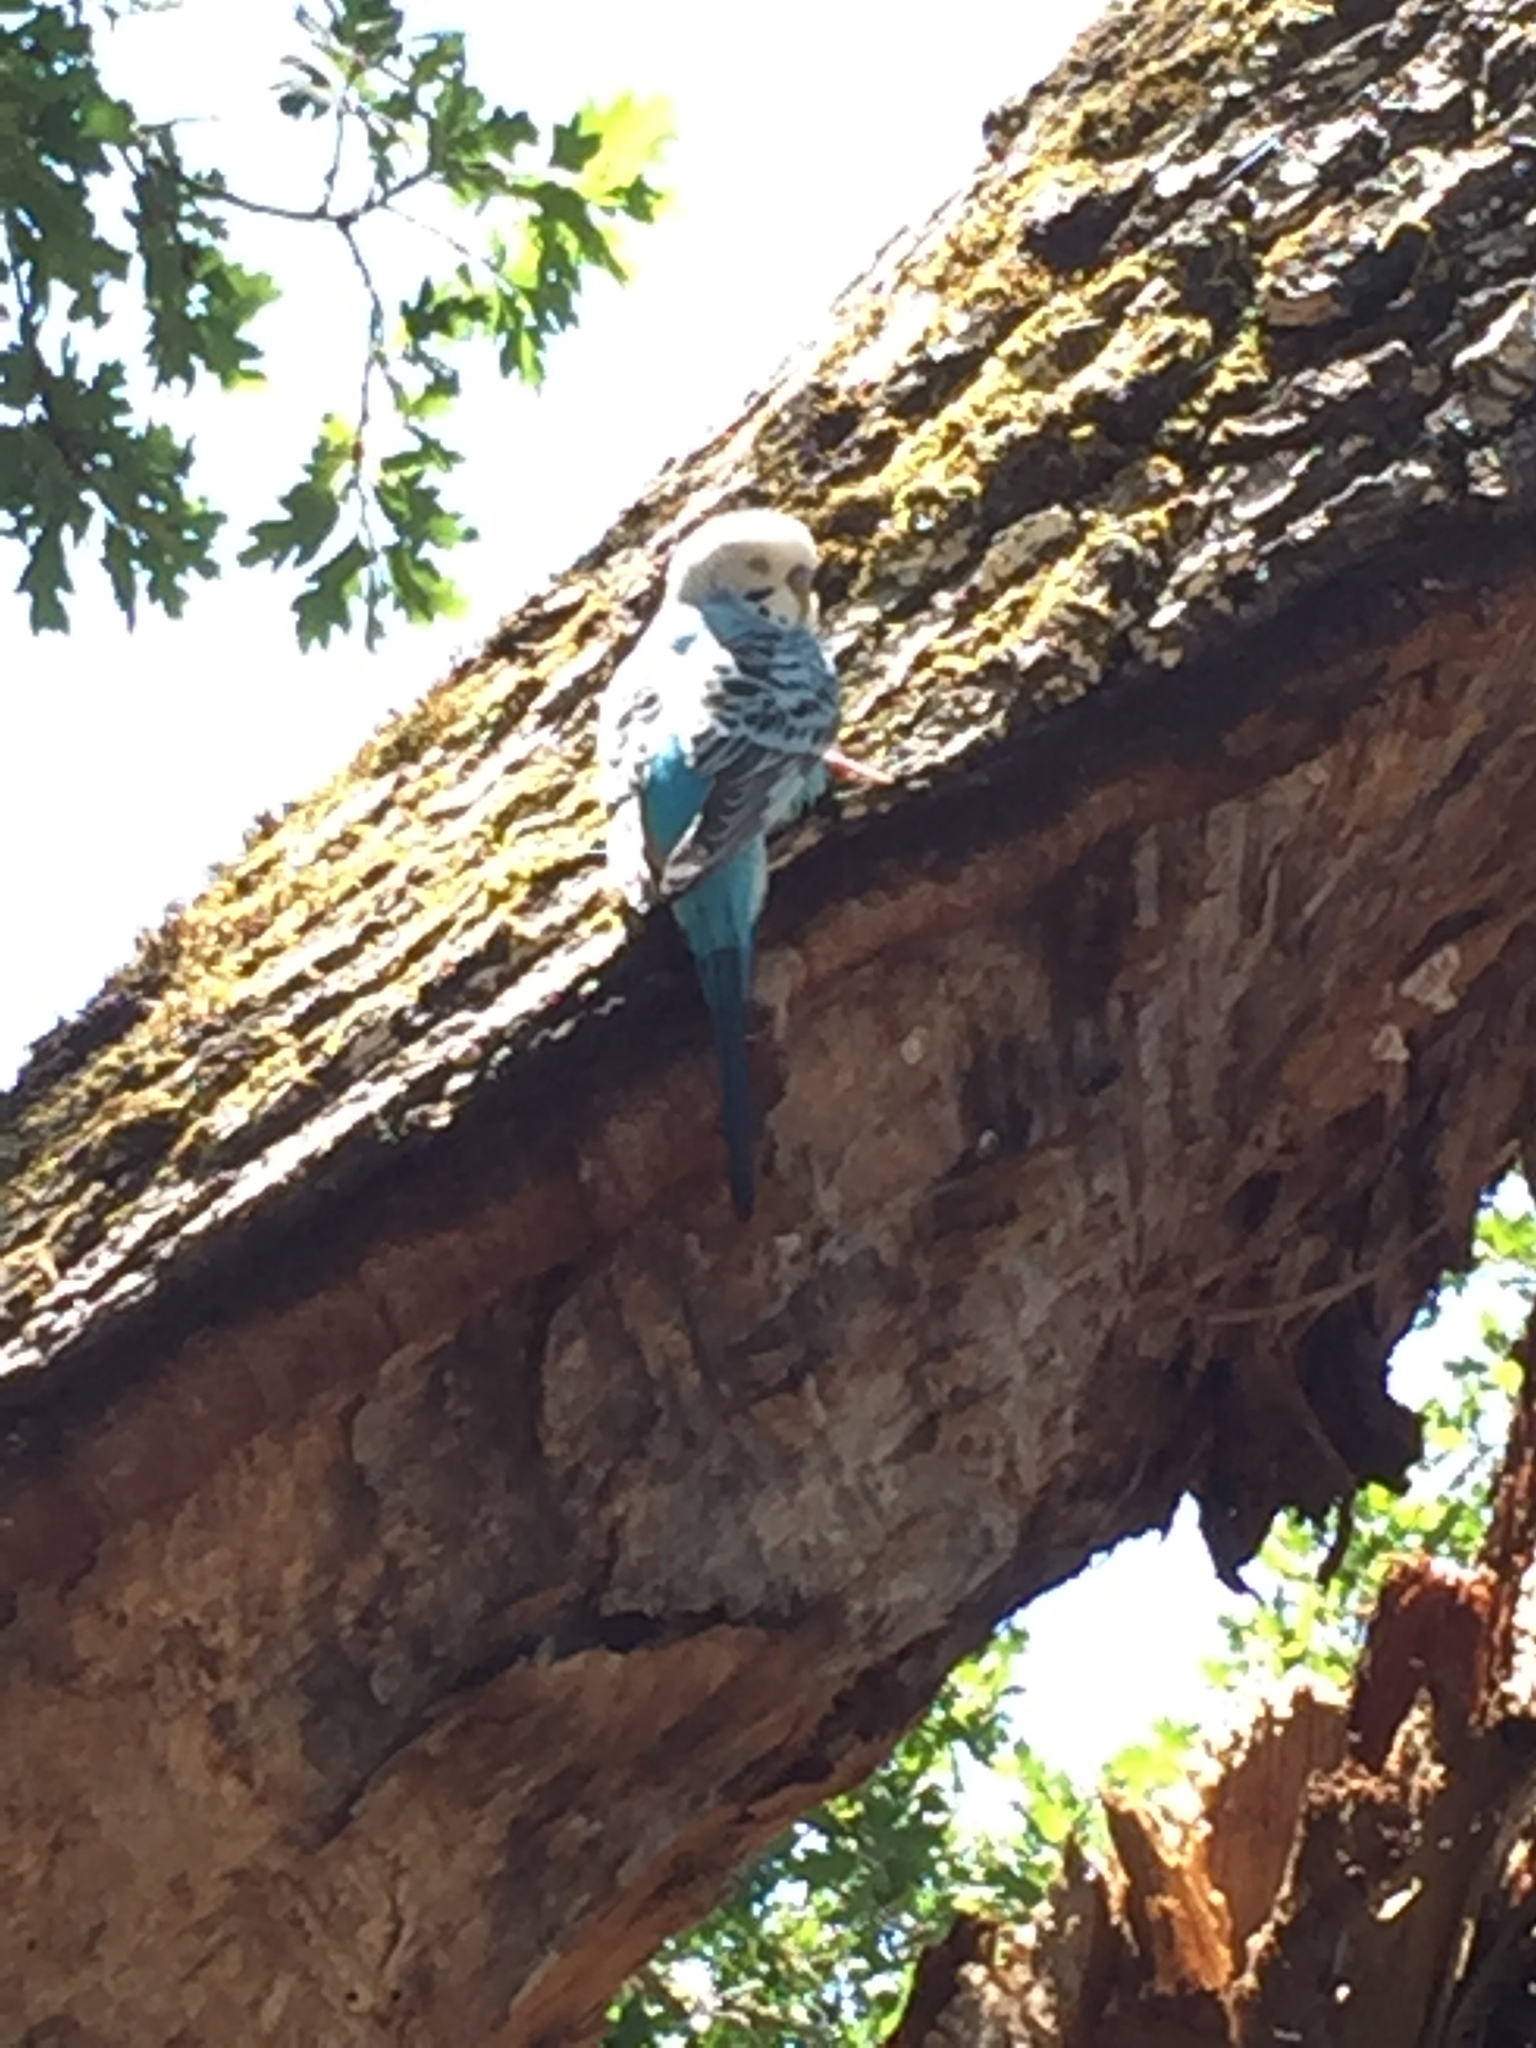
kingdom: Animalia
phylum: Chordata
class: Aves
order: Psittaciformes
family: Psittacidae
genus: Melopsittacus
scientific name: Melopsittacus undulatus
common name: Budgerigar
